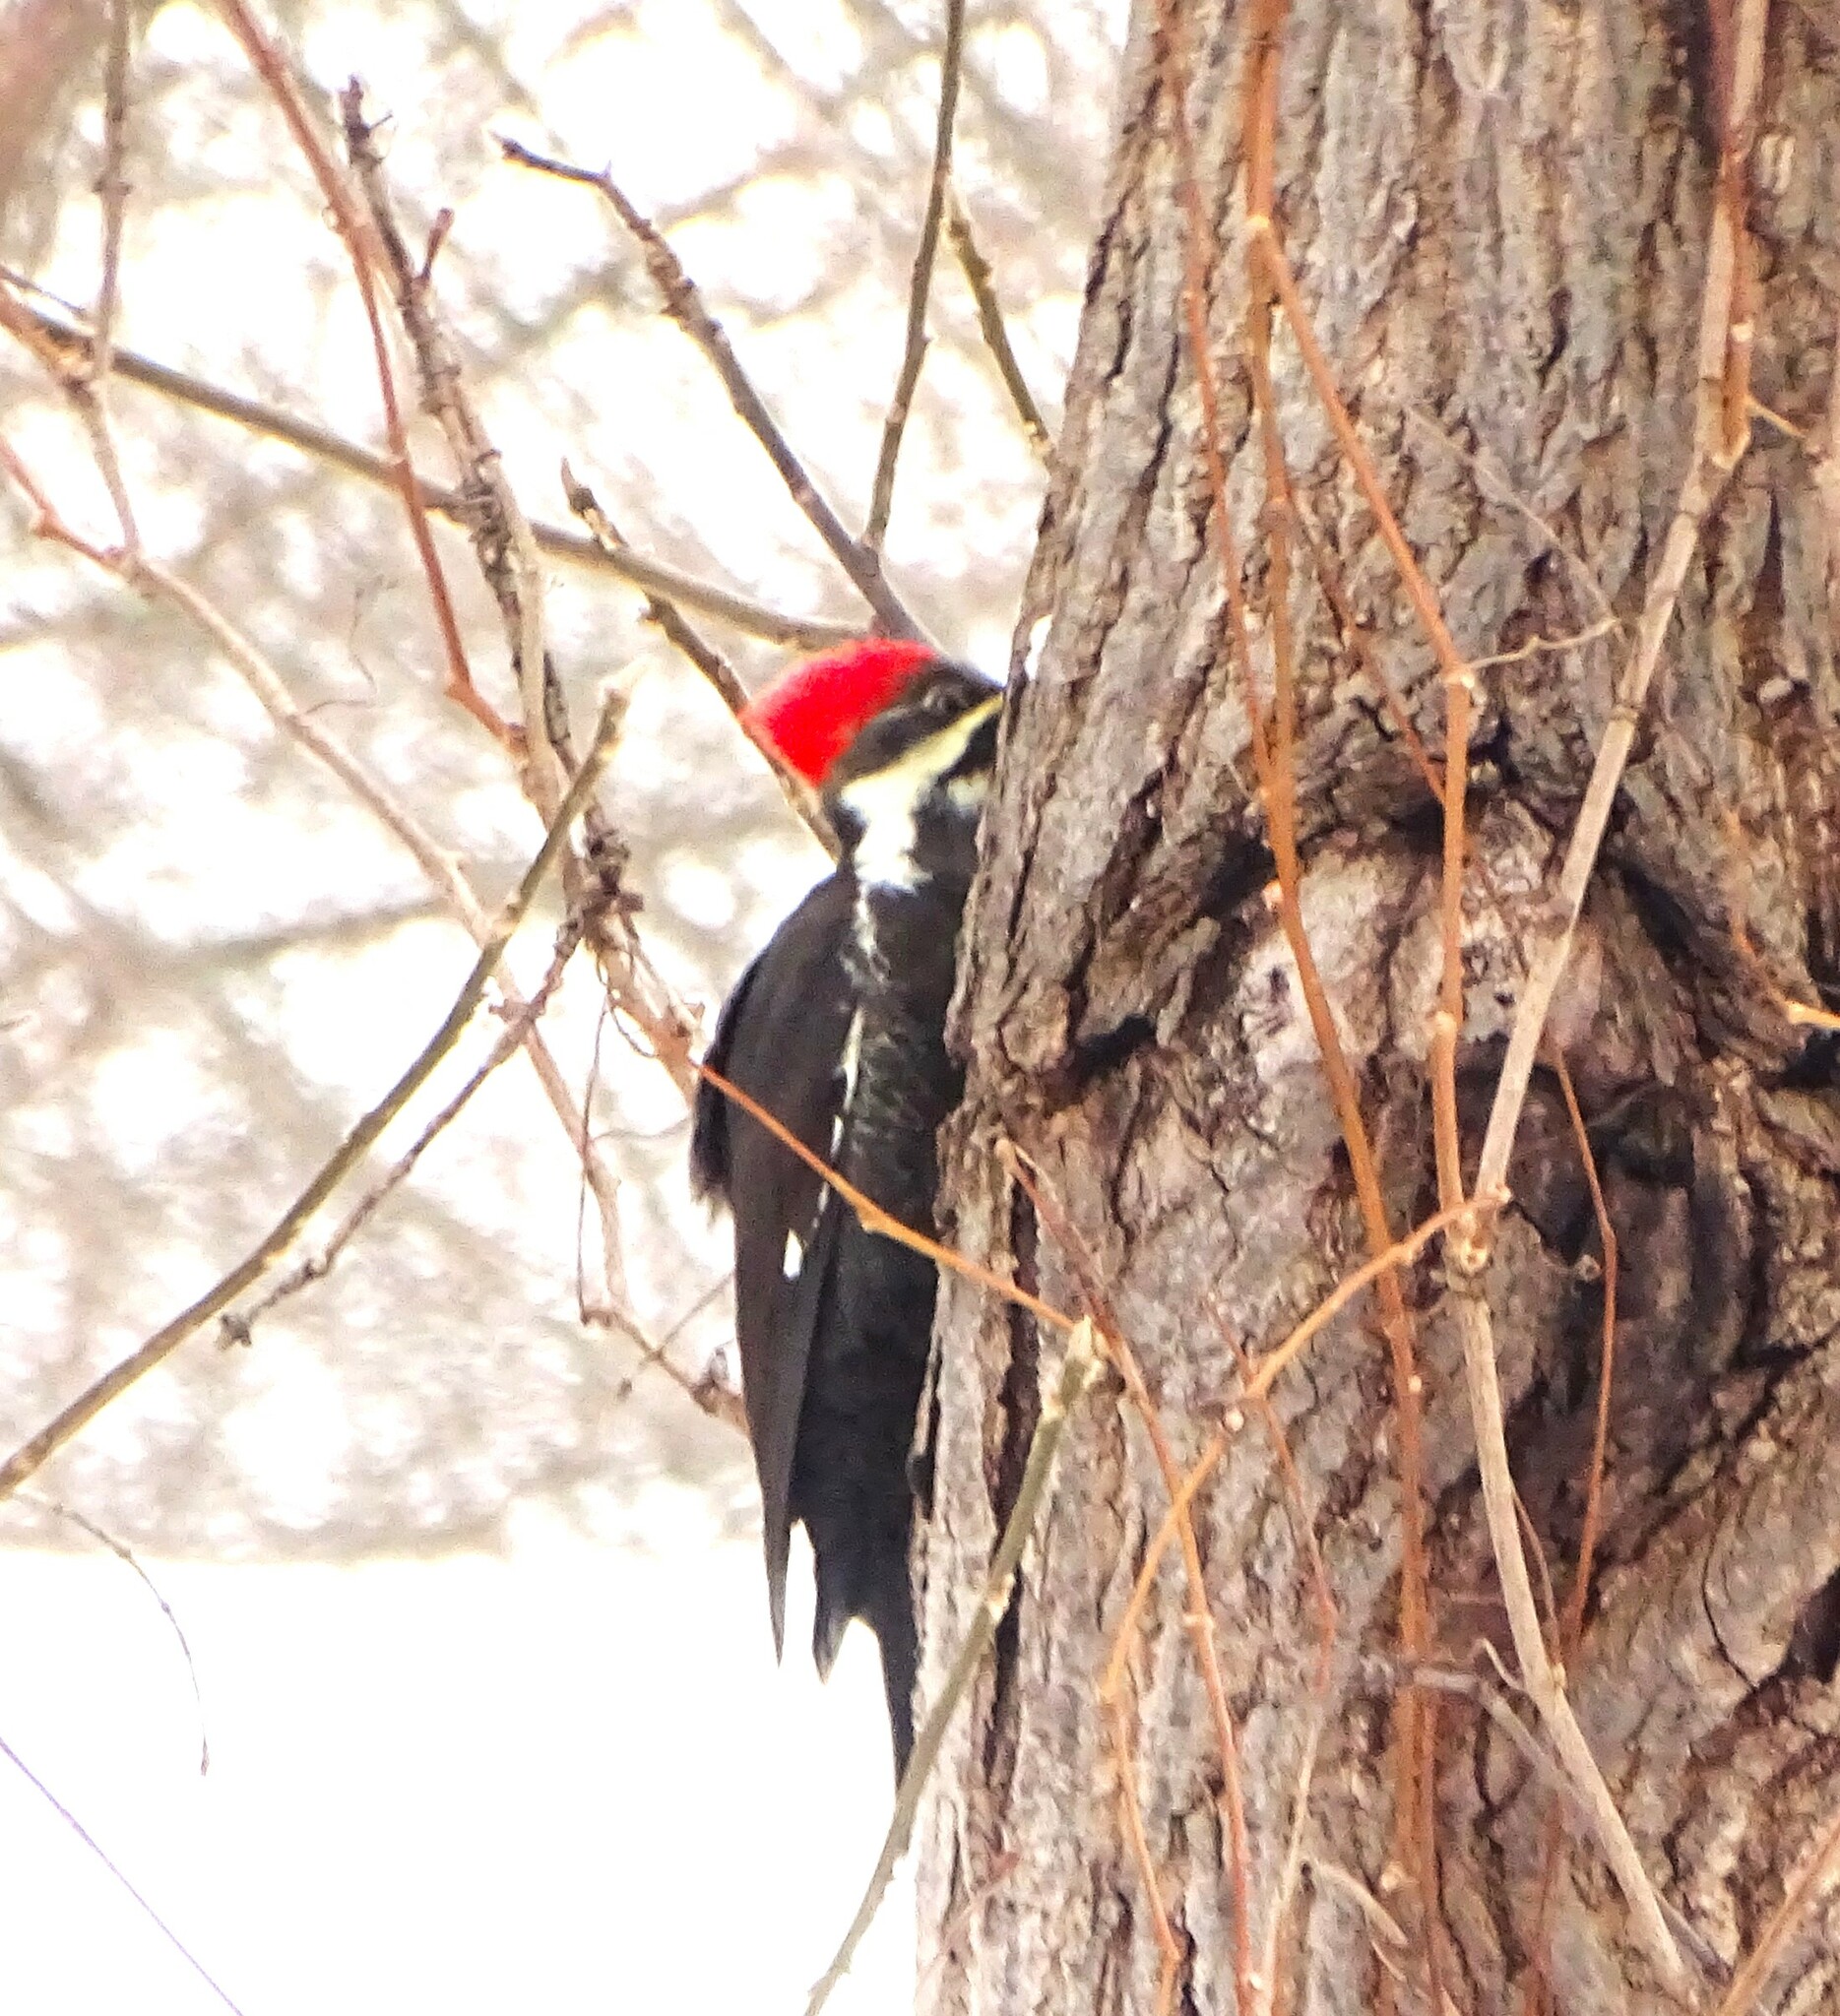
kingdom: Animalia
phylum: Chordata
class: Aves
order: Piciformes
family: Picidae
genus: Dryocopus
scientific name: Dryocopus pileatus
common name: Pileated woodpecker
